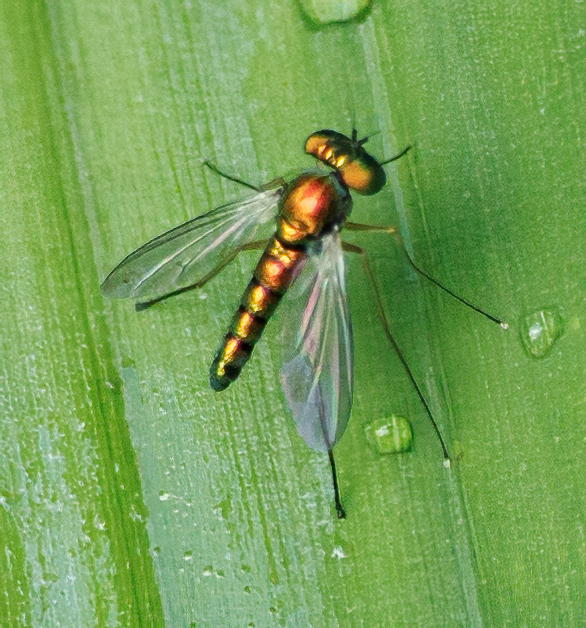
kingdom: Animalia
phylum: Arthropoda
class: Insecta
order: Diptera
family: Dolichopodidae
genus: Condylostylus
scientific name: Condylostylus banksii
